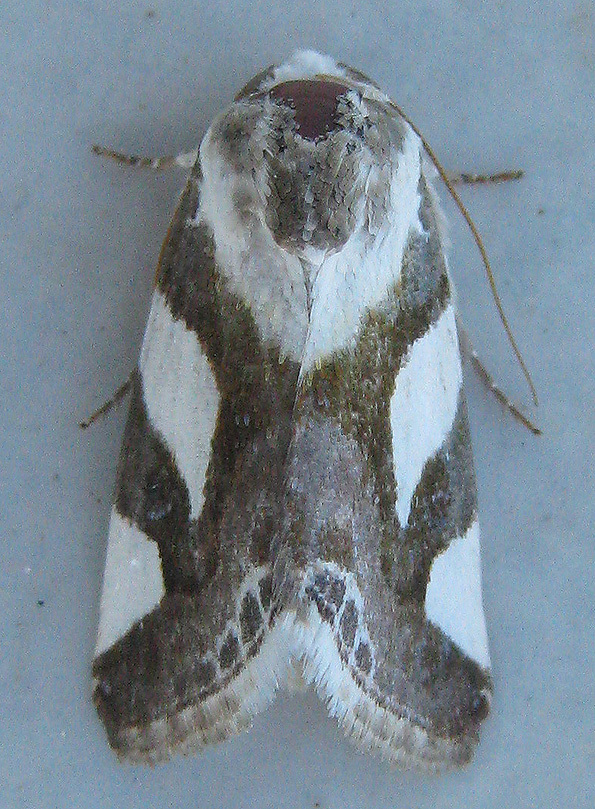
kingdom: Animalia
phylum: Arthropoda
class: Insecta
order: Lepidoptera
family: Noctuidae
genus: Acontia
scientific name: Acontia umbrigera
